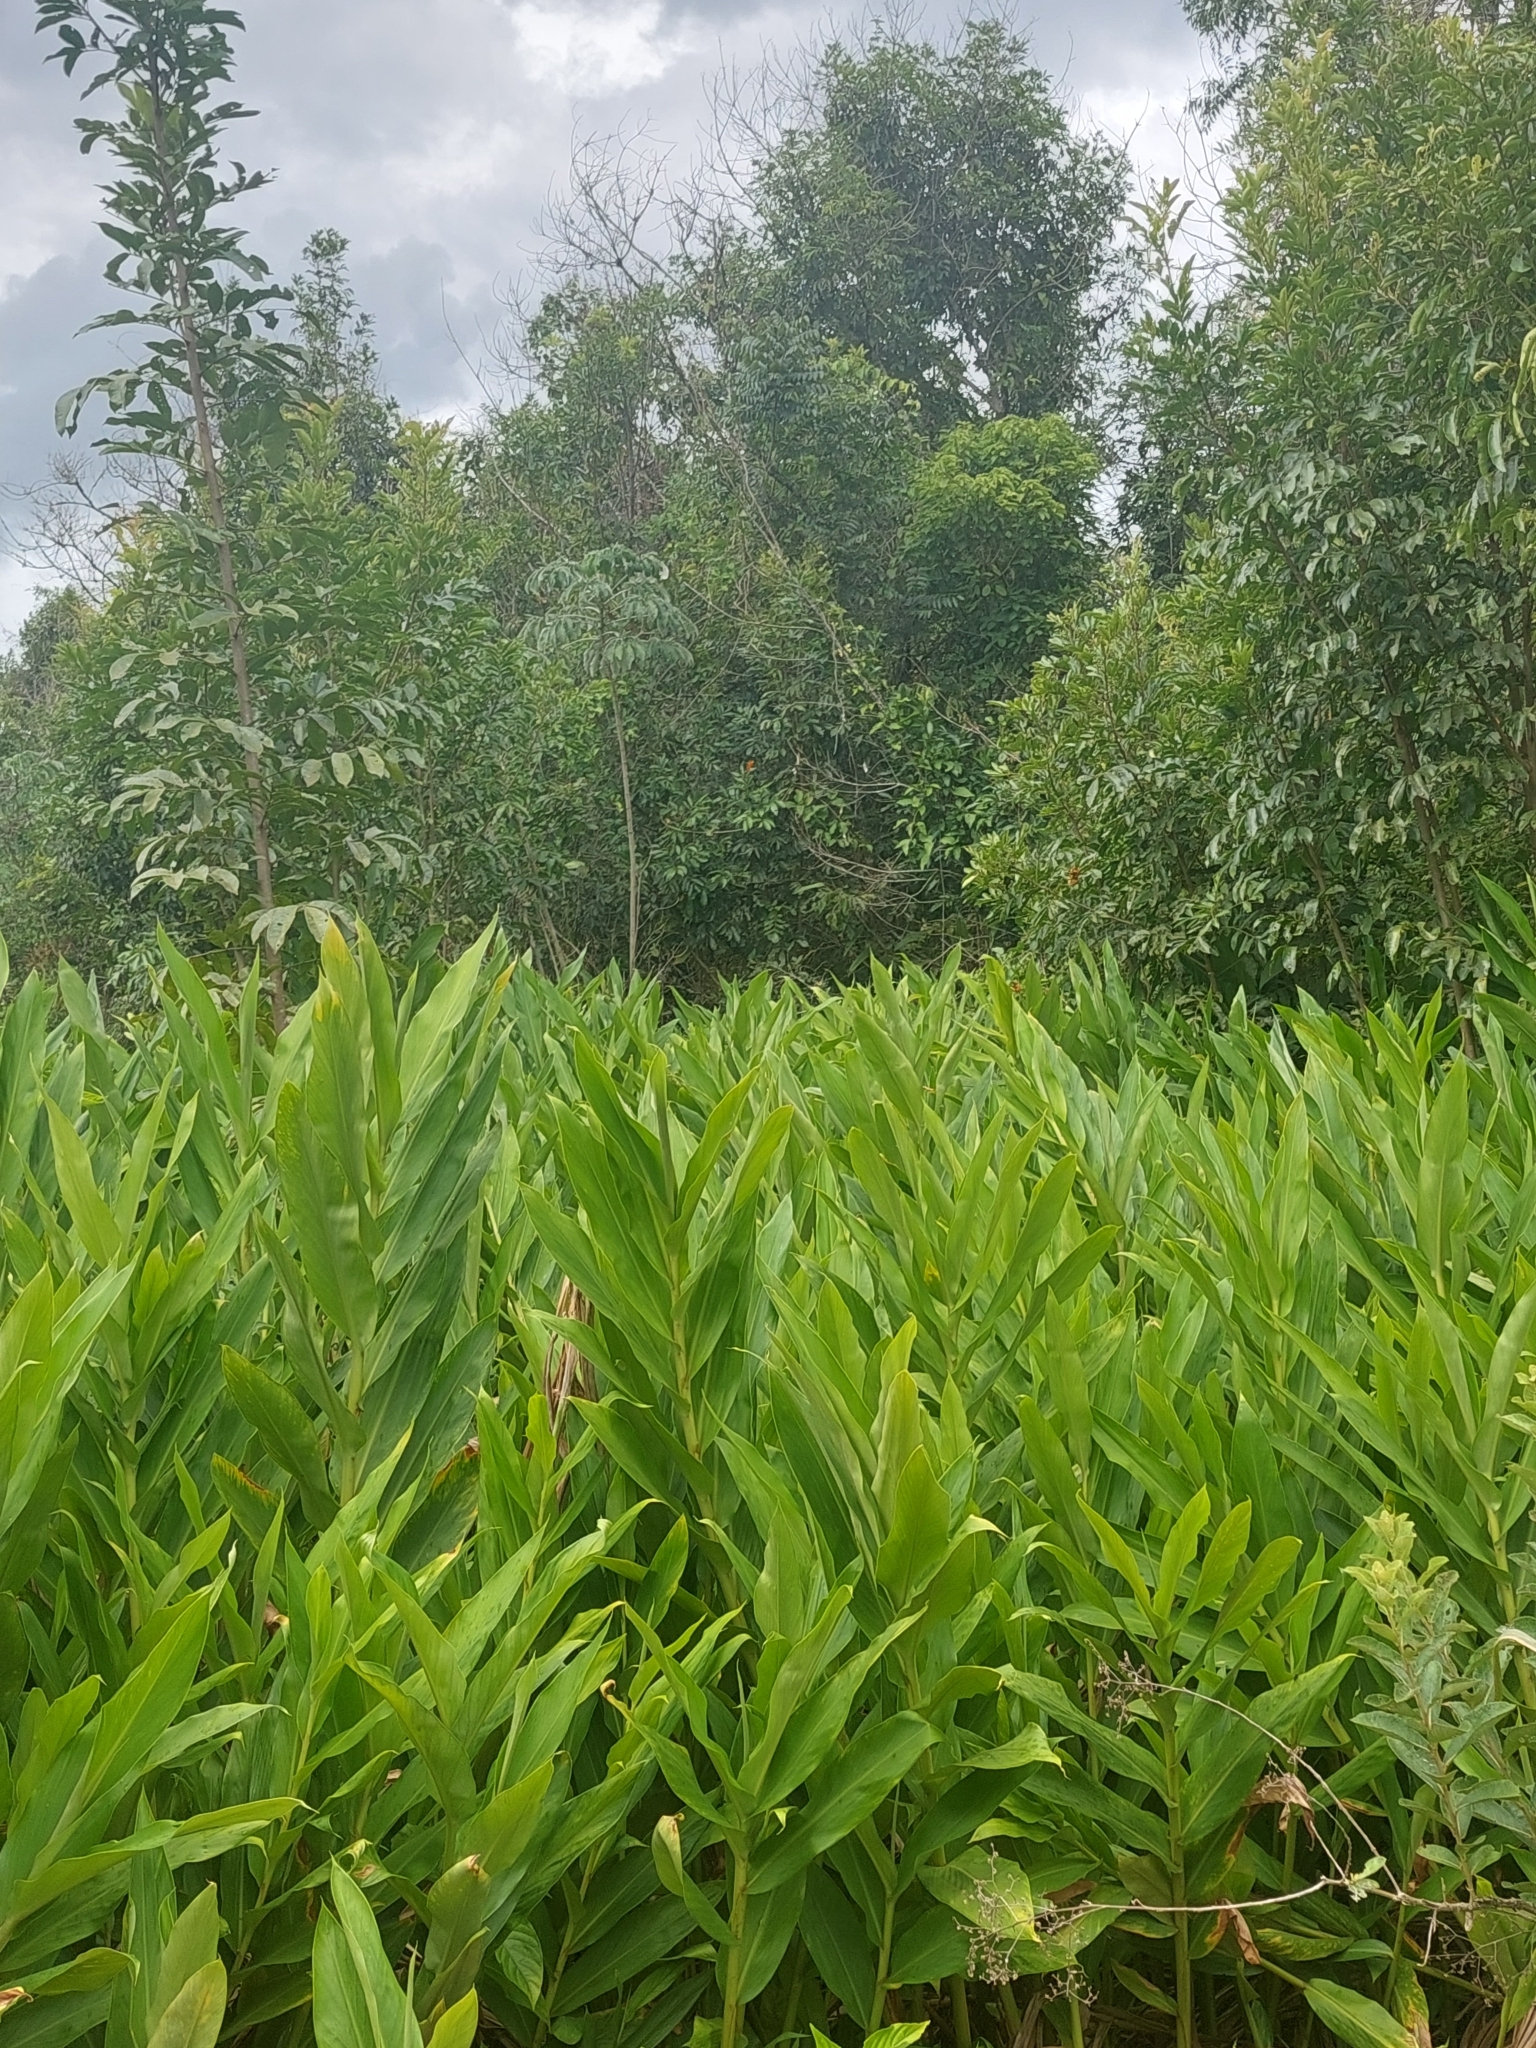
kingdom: Plantae
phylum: Tracheophyta
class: Liliopsida
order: Zingiberales
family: Zingiberaceae
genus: Hedychium
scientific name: Hedychium coronarium
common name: White garland-lily
